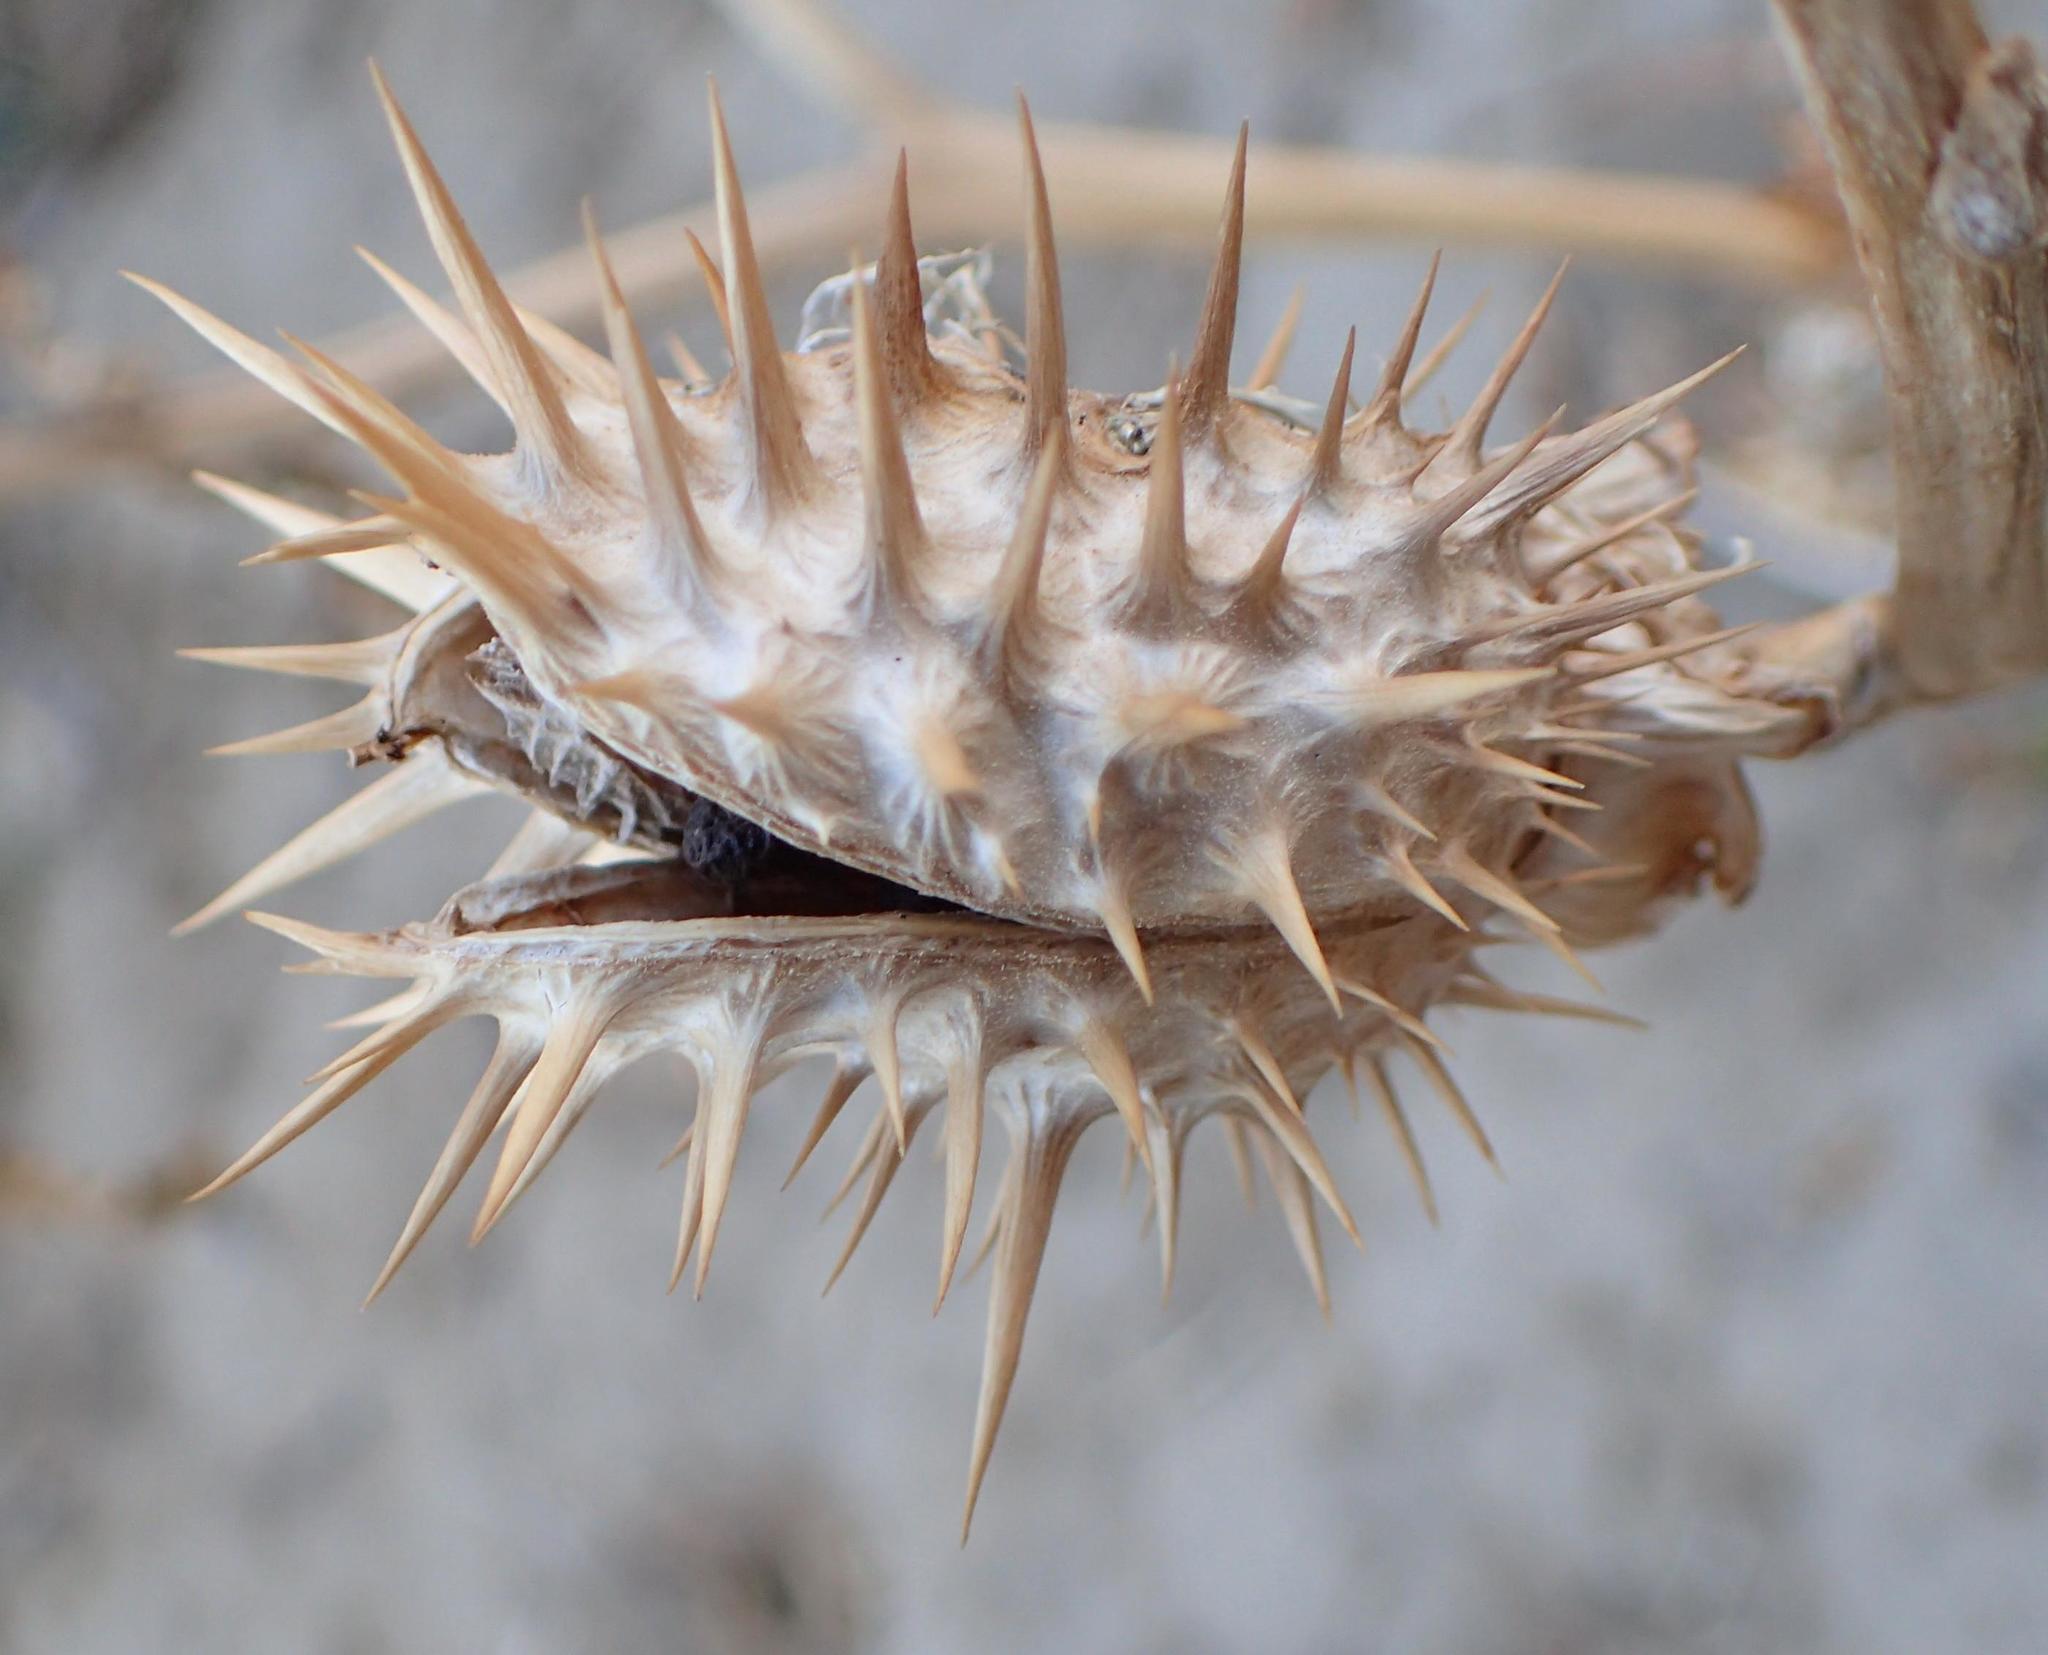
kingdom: Plantae
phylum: Tracheophyta
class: Magnoliopsida
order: Solanales
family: Solanaceae
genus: Datura
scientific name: Datura stramonium
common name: Thorn-apple
